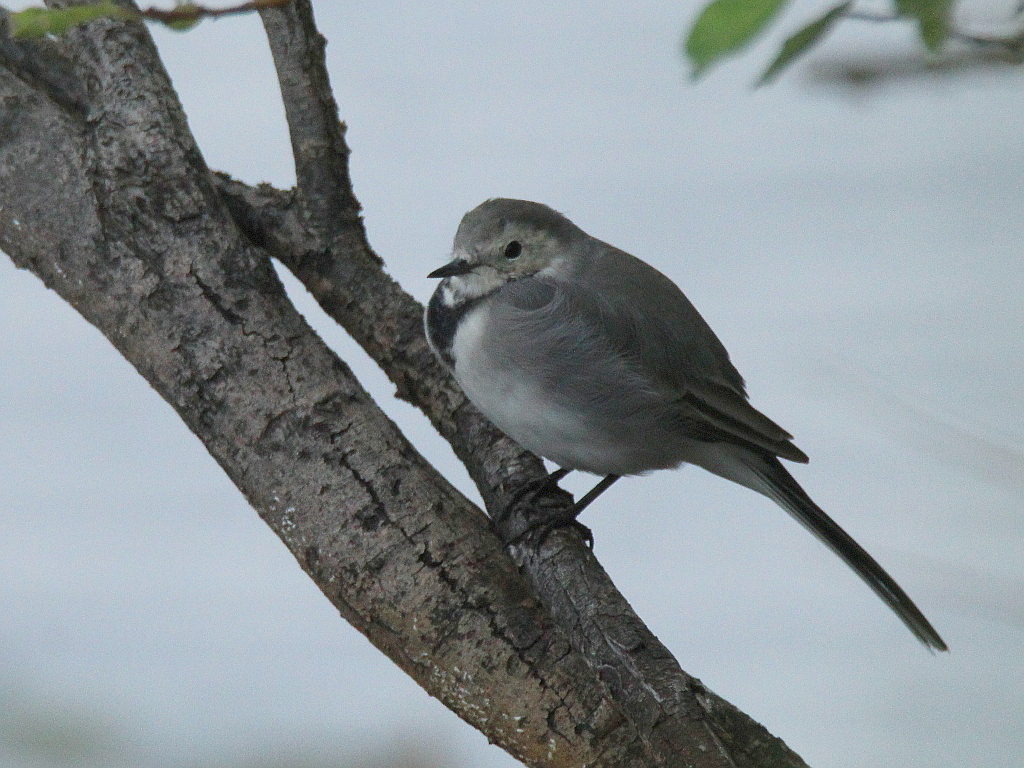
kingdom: Animalia
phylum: Chordata
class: Aves
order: Passeriformes
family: Motacillidae
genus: Motacilla
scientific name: Motacilla alba
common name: White wagtail
